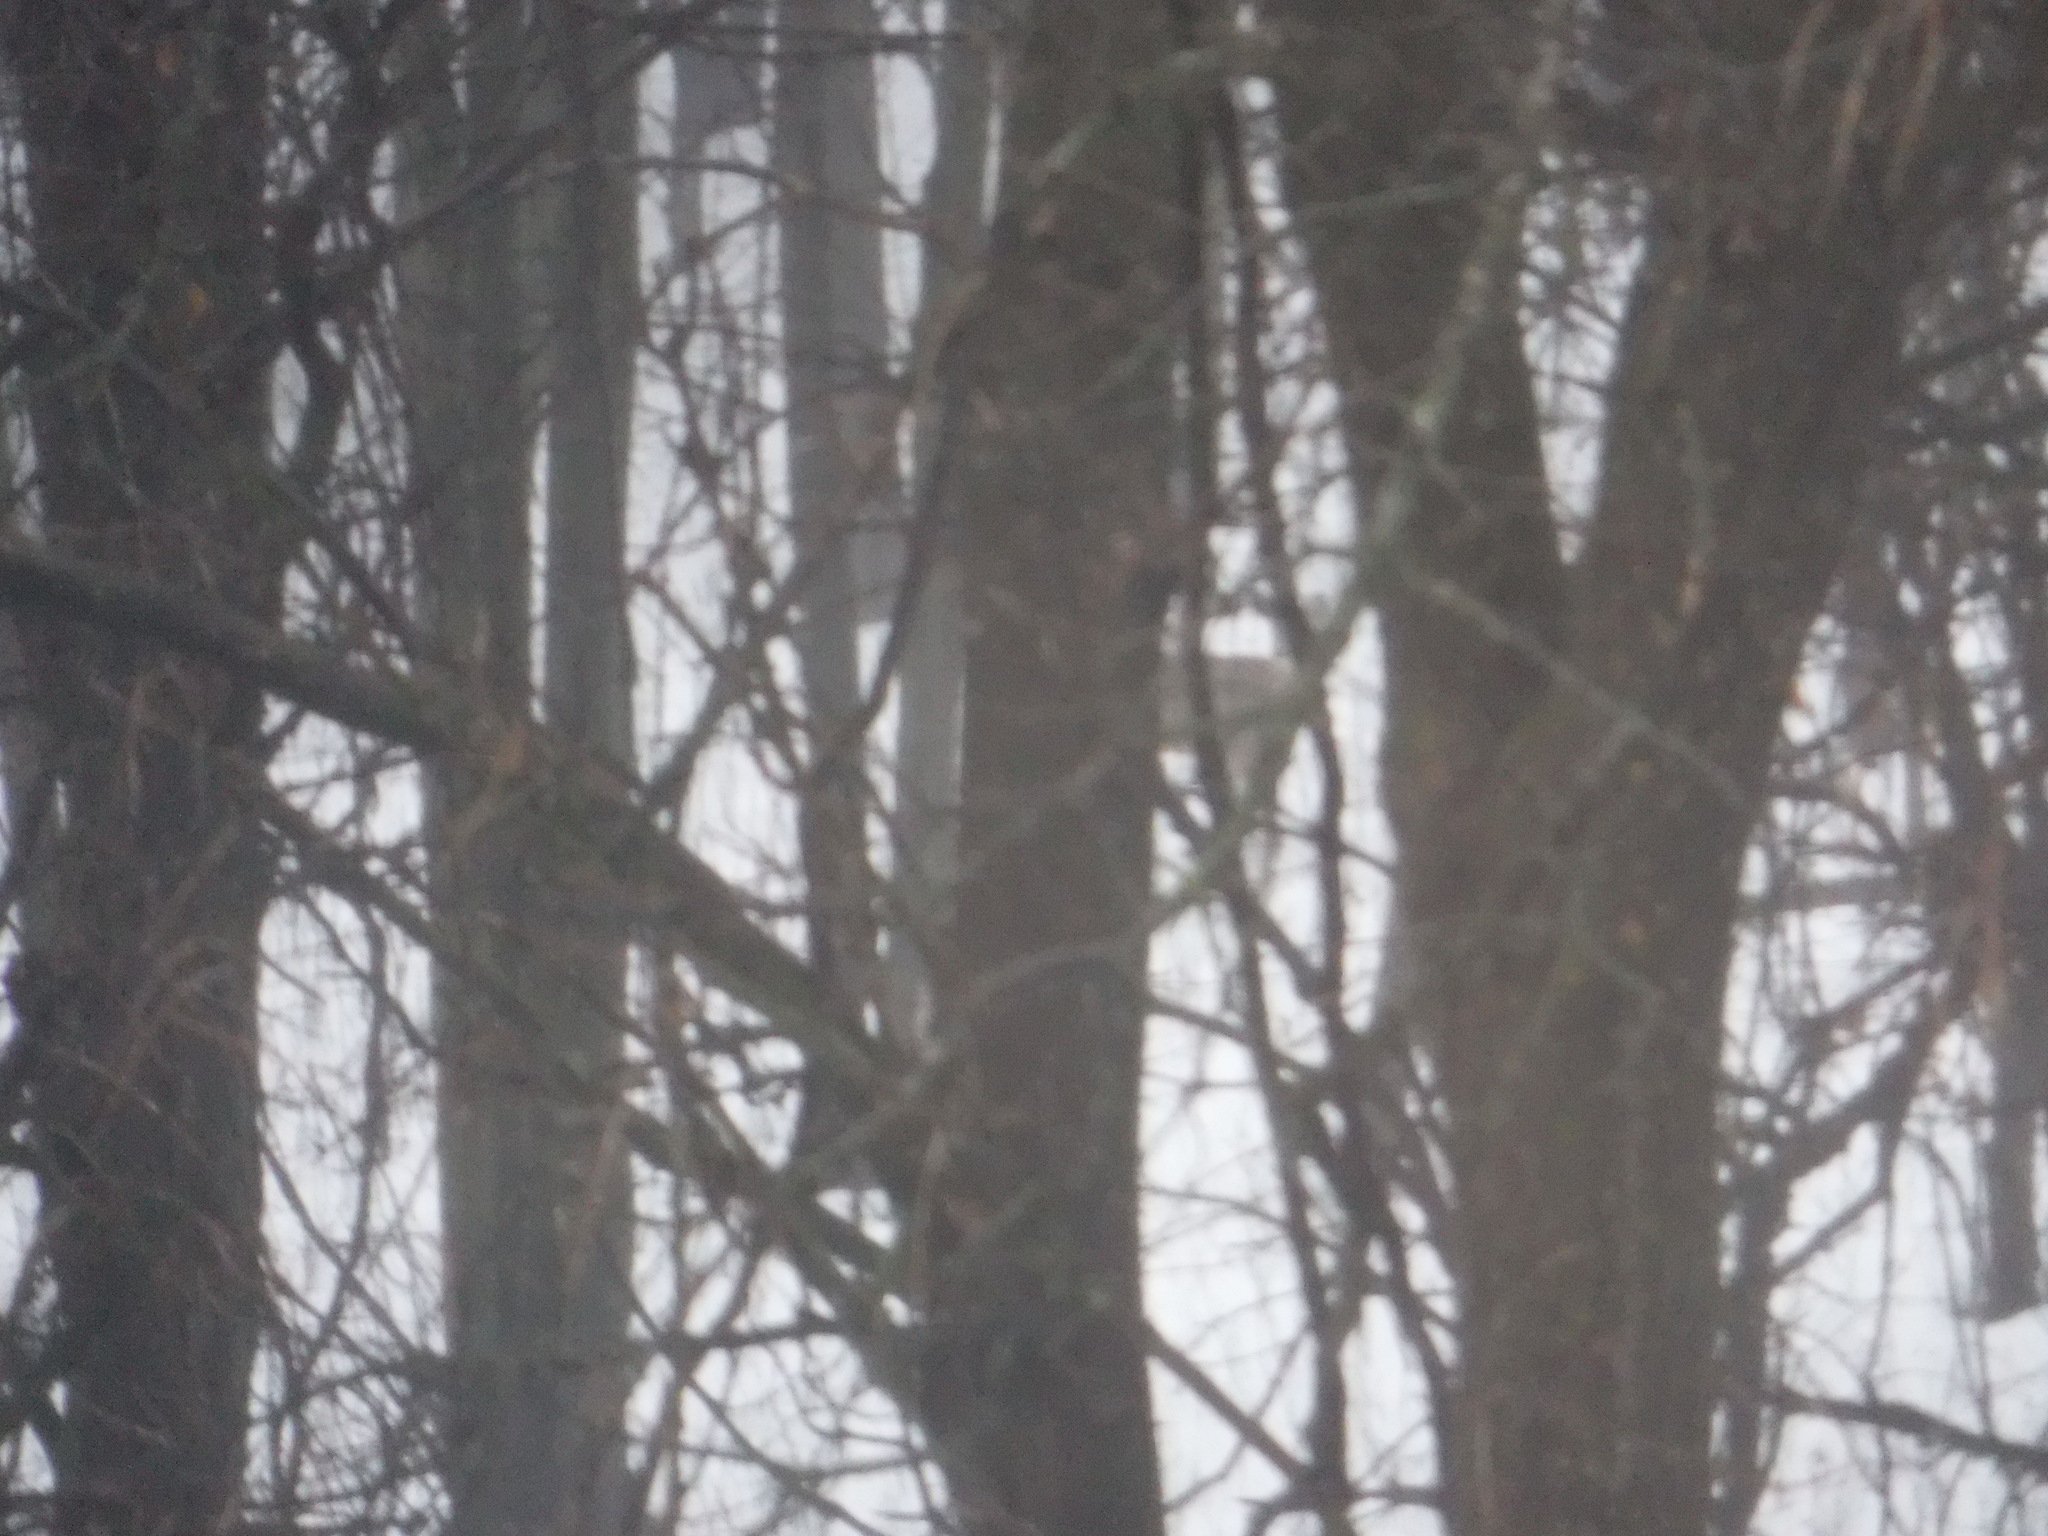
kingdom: Animalia
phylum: Chordata
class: Mammalia
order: Artiodactyla
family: Cervidae
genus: Odocoileus
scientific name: Odocoileus virginianus
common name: White-tailed deer
